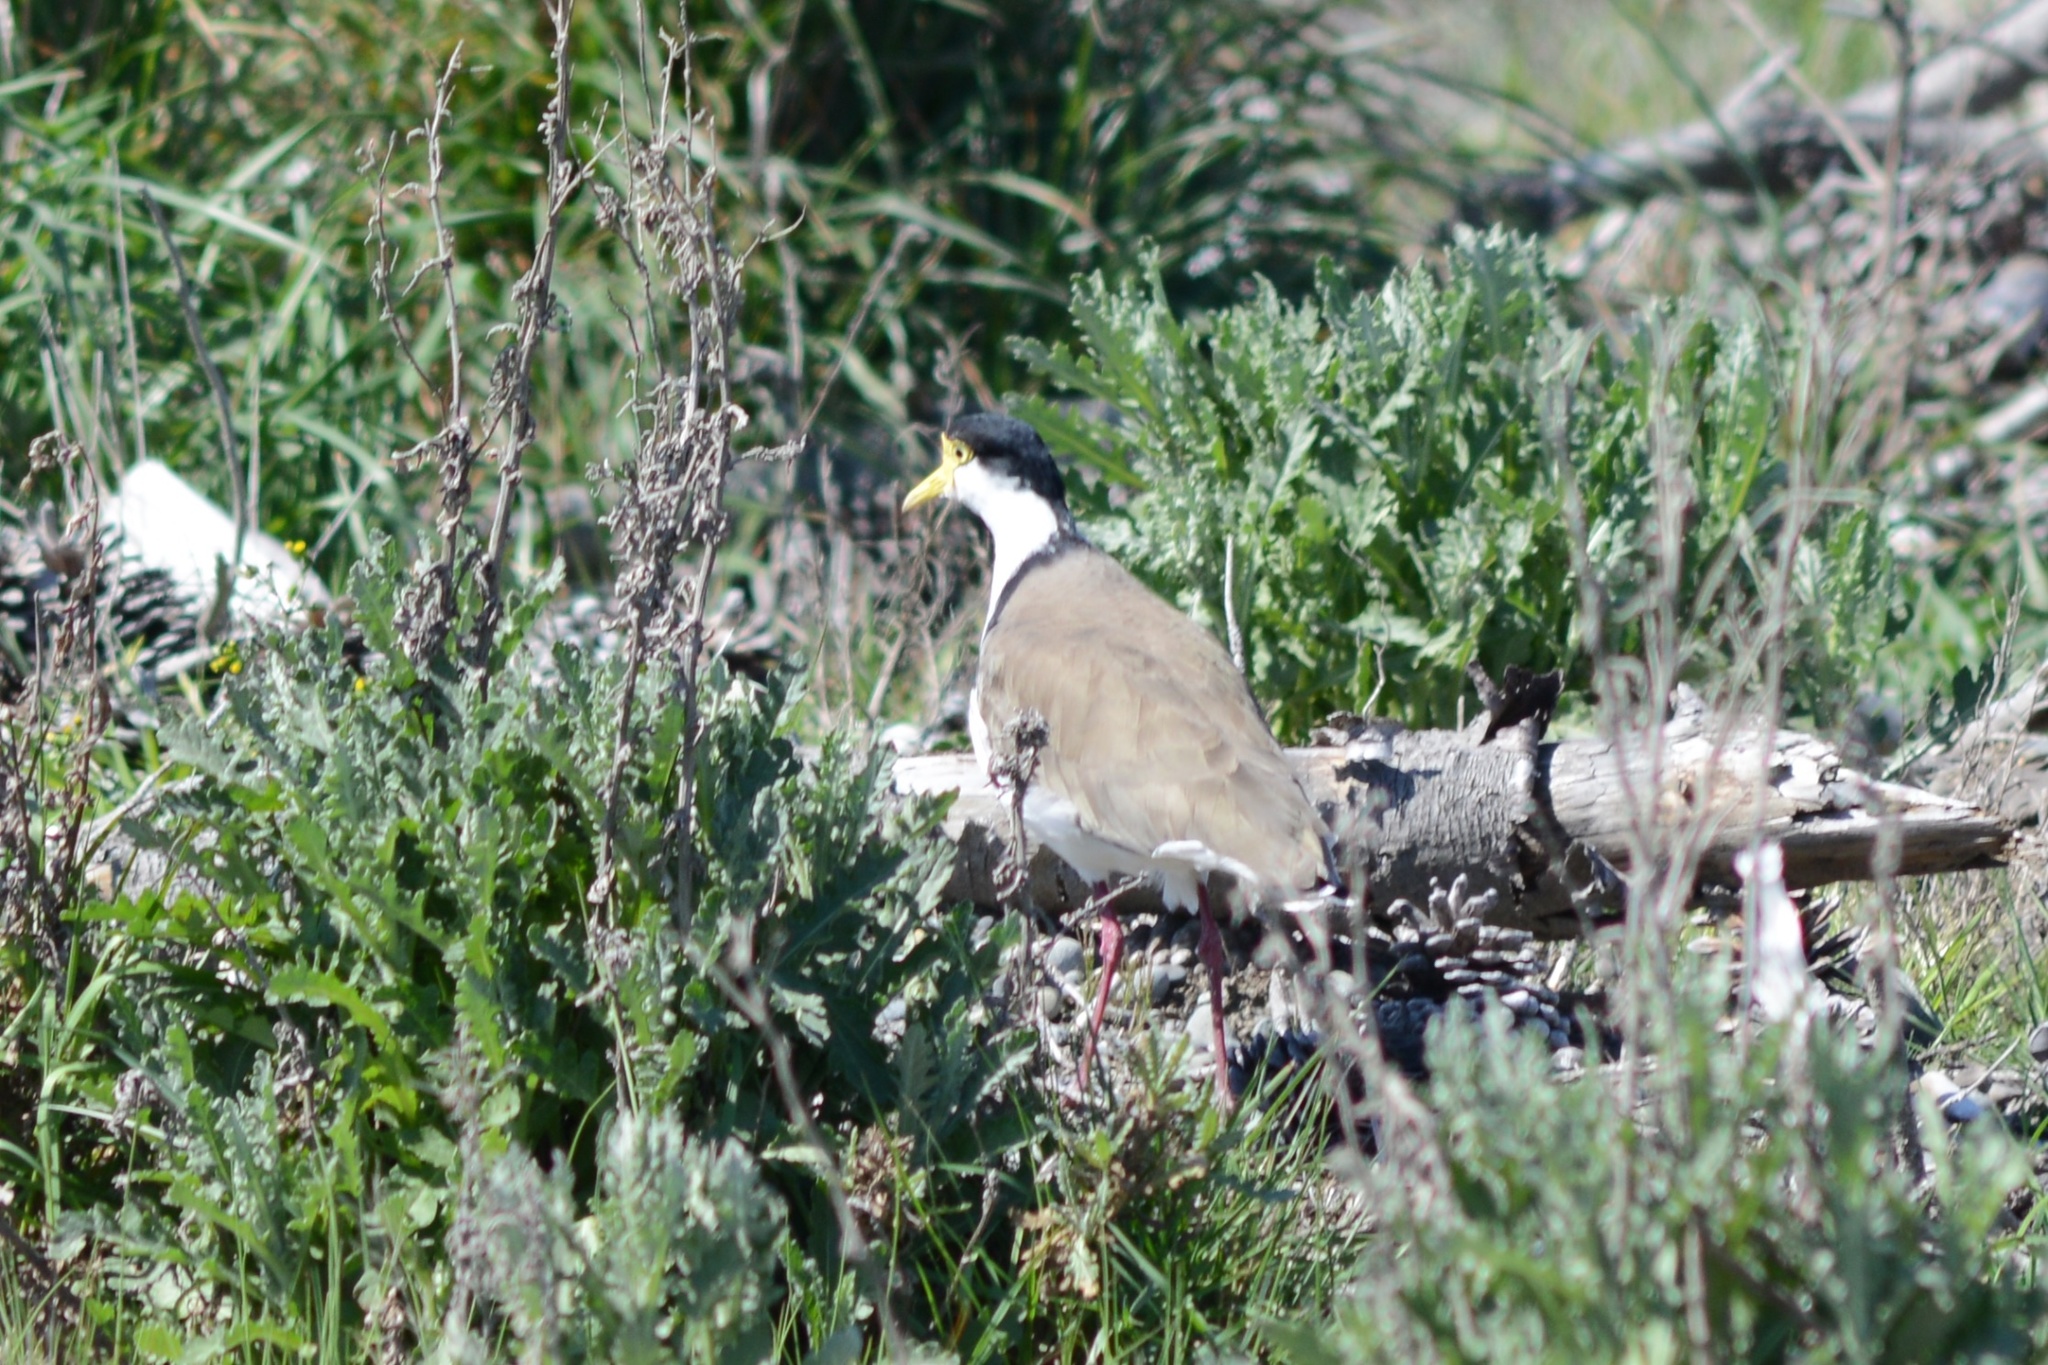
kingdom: Animalia
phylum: Chordata
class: Aves
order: Charadriiformes
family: Charadriidae
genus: Vanellus
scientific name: Vanellus miles
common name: Masked lapwing
